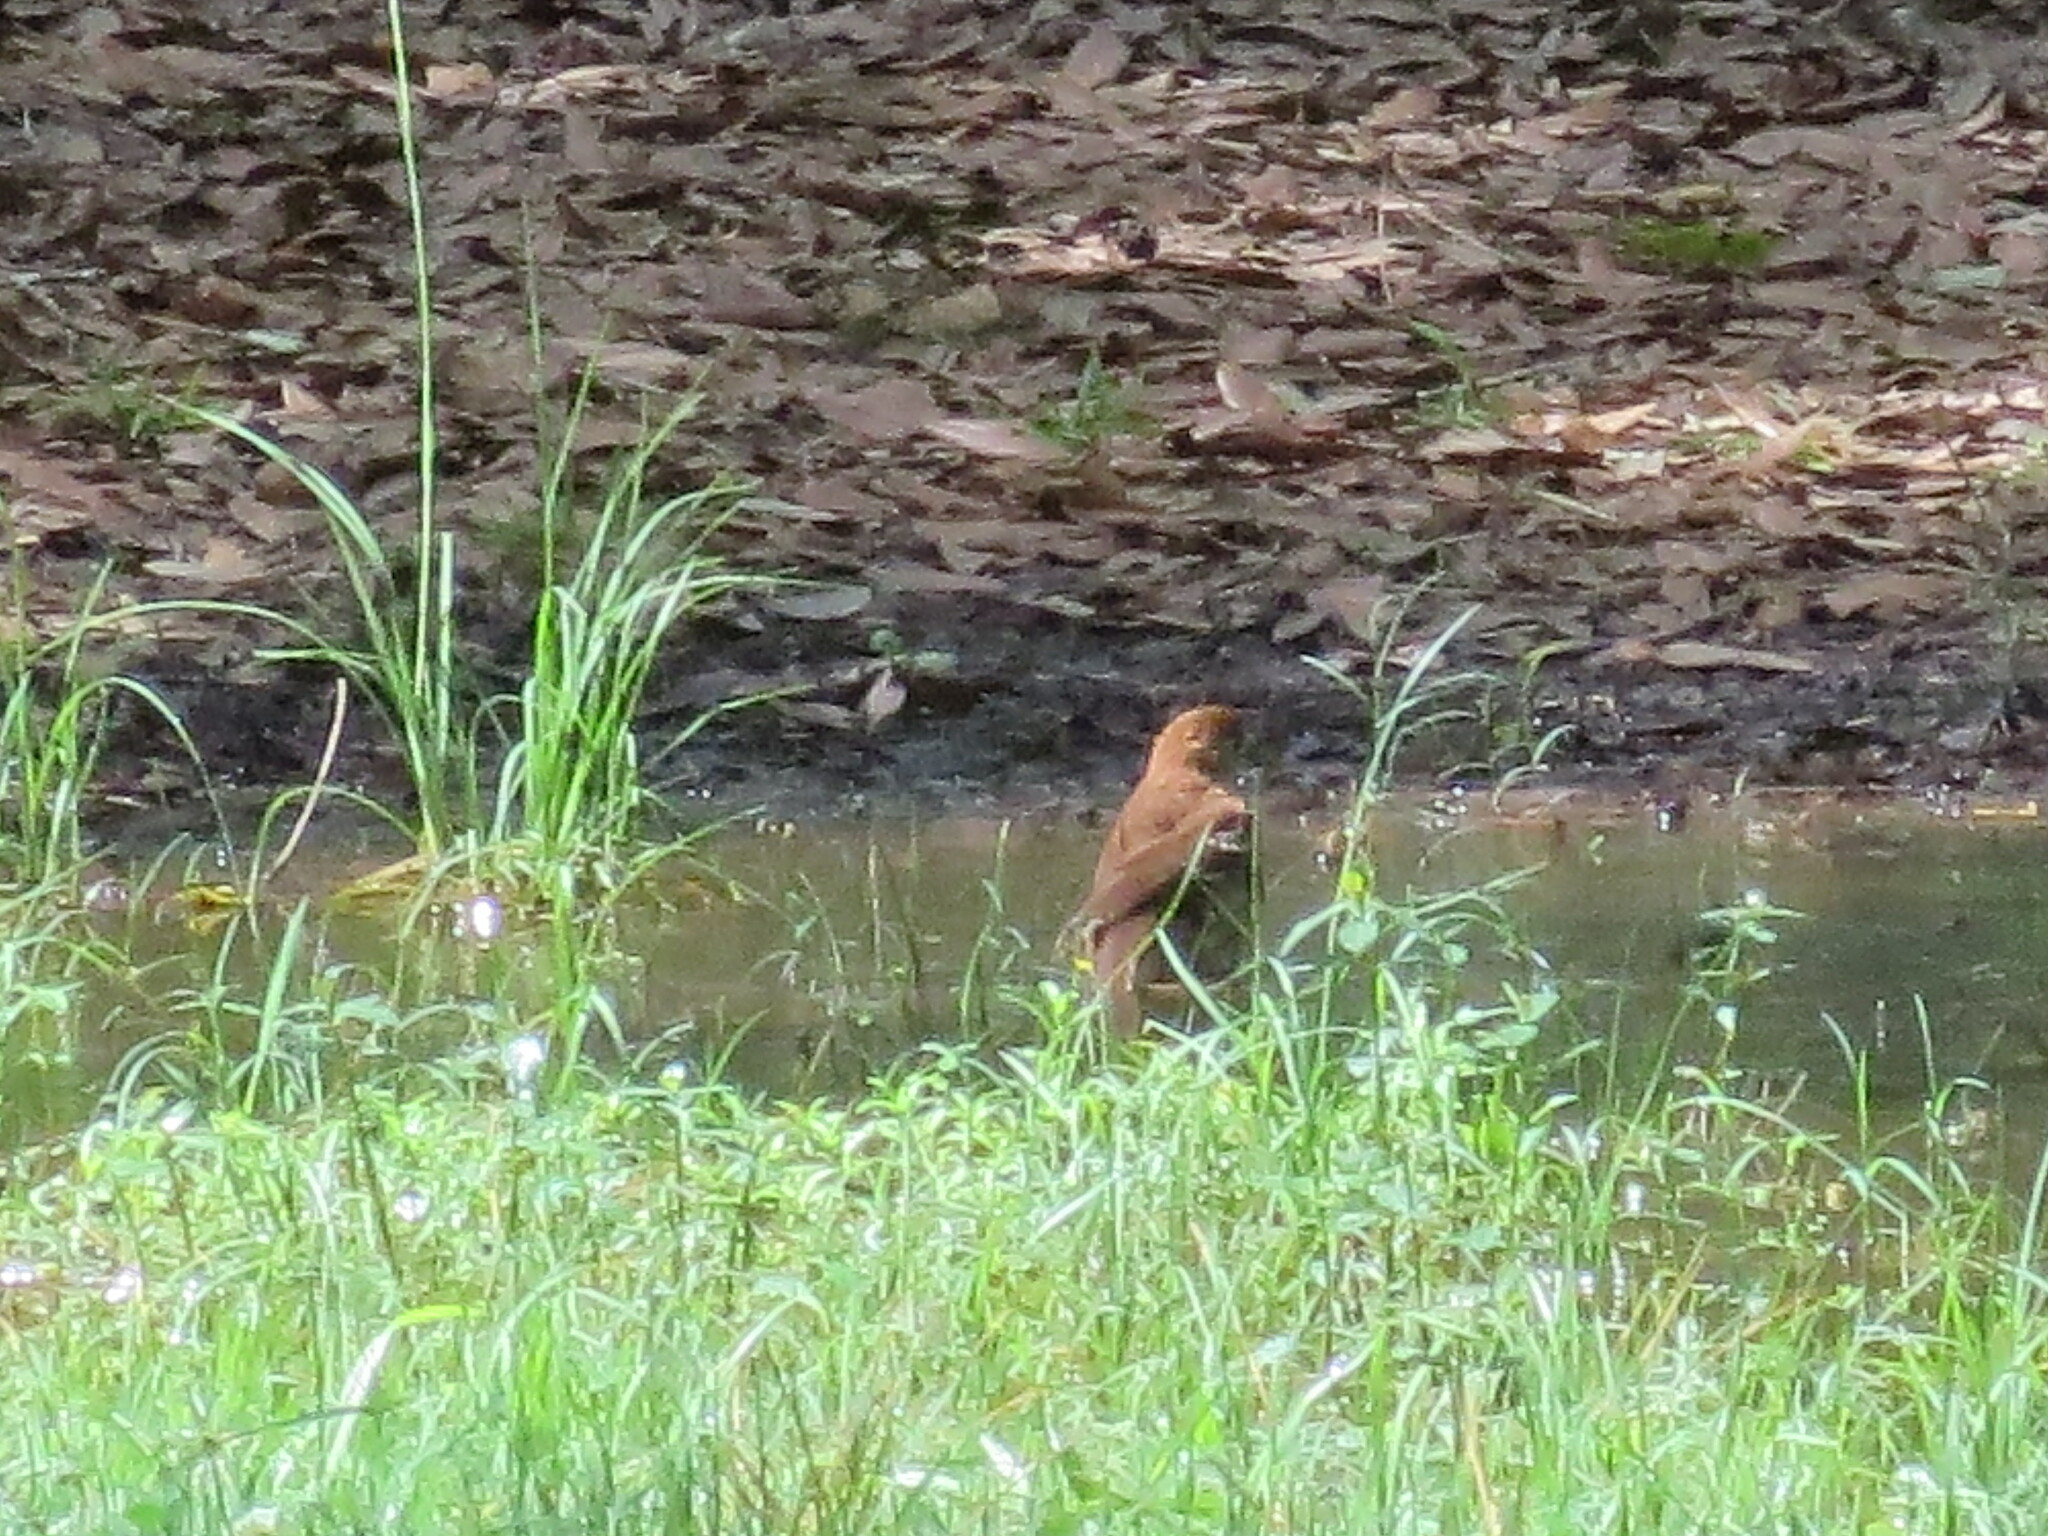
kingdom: Animalia
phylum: Chordata
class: Aves
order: Passeriformes
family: Mimidae
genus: Toxostoma
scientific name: Toxostoma rufum
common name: Brown thrasher
